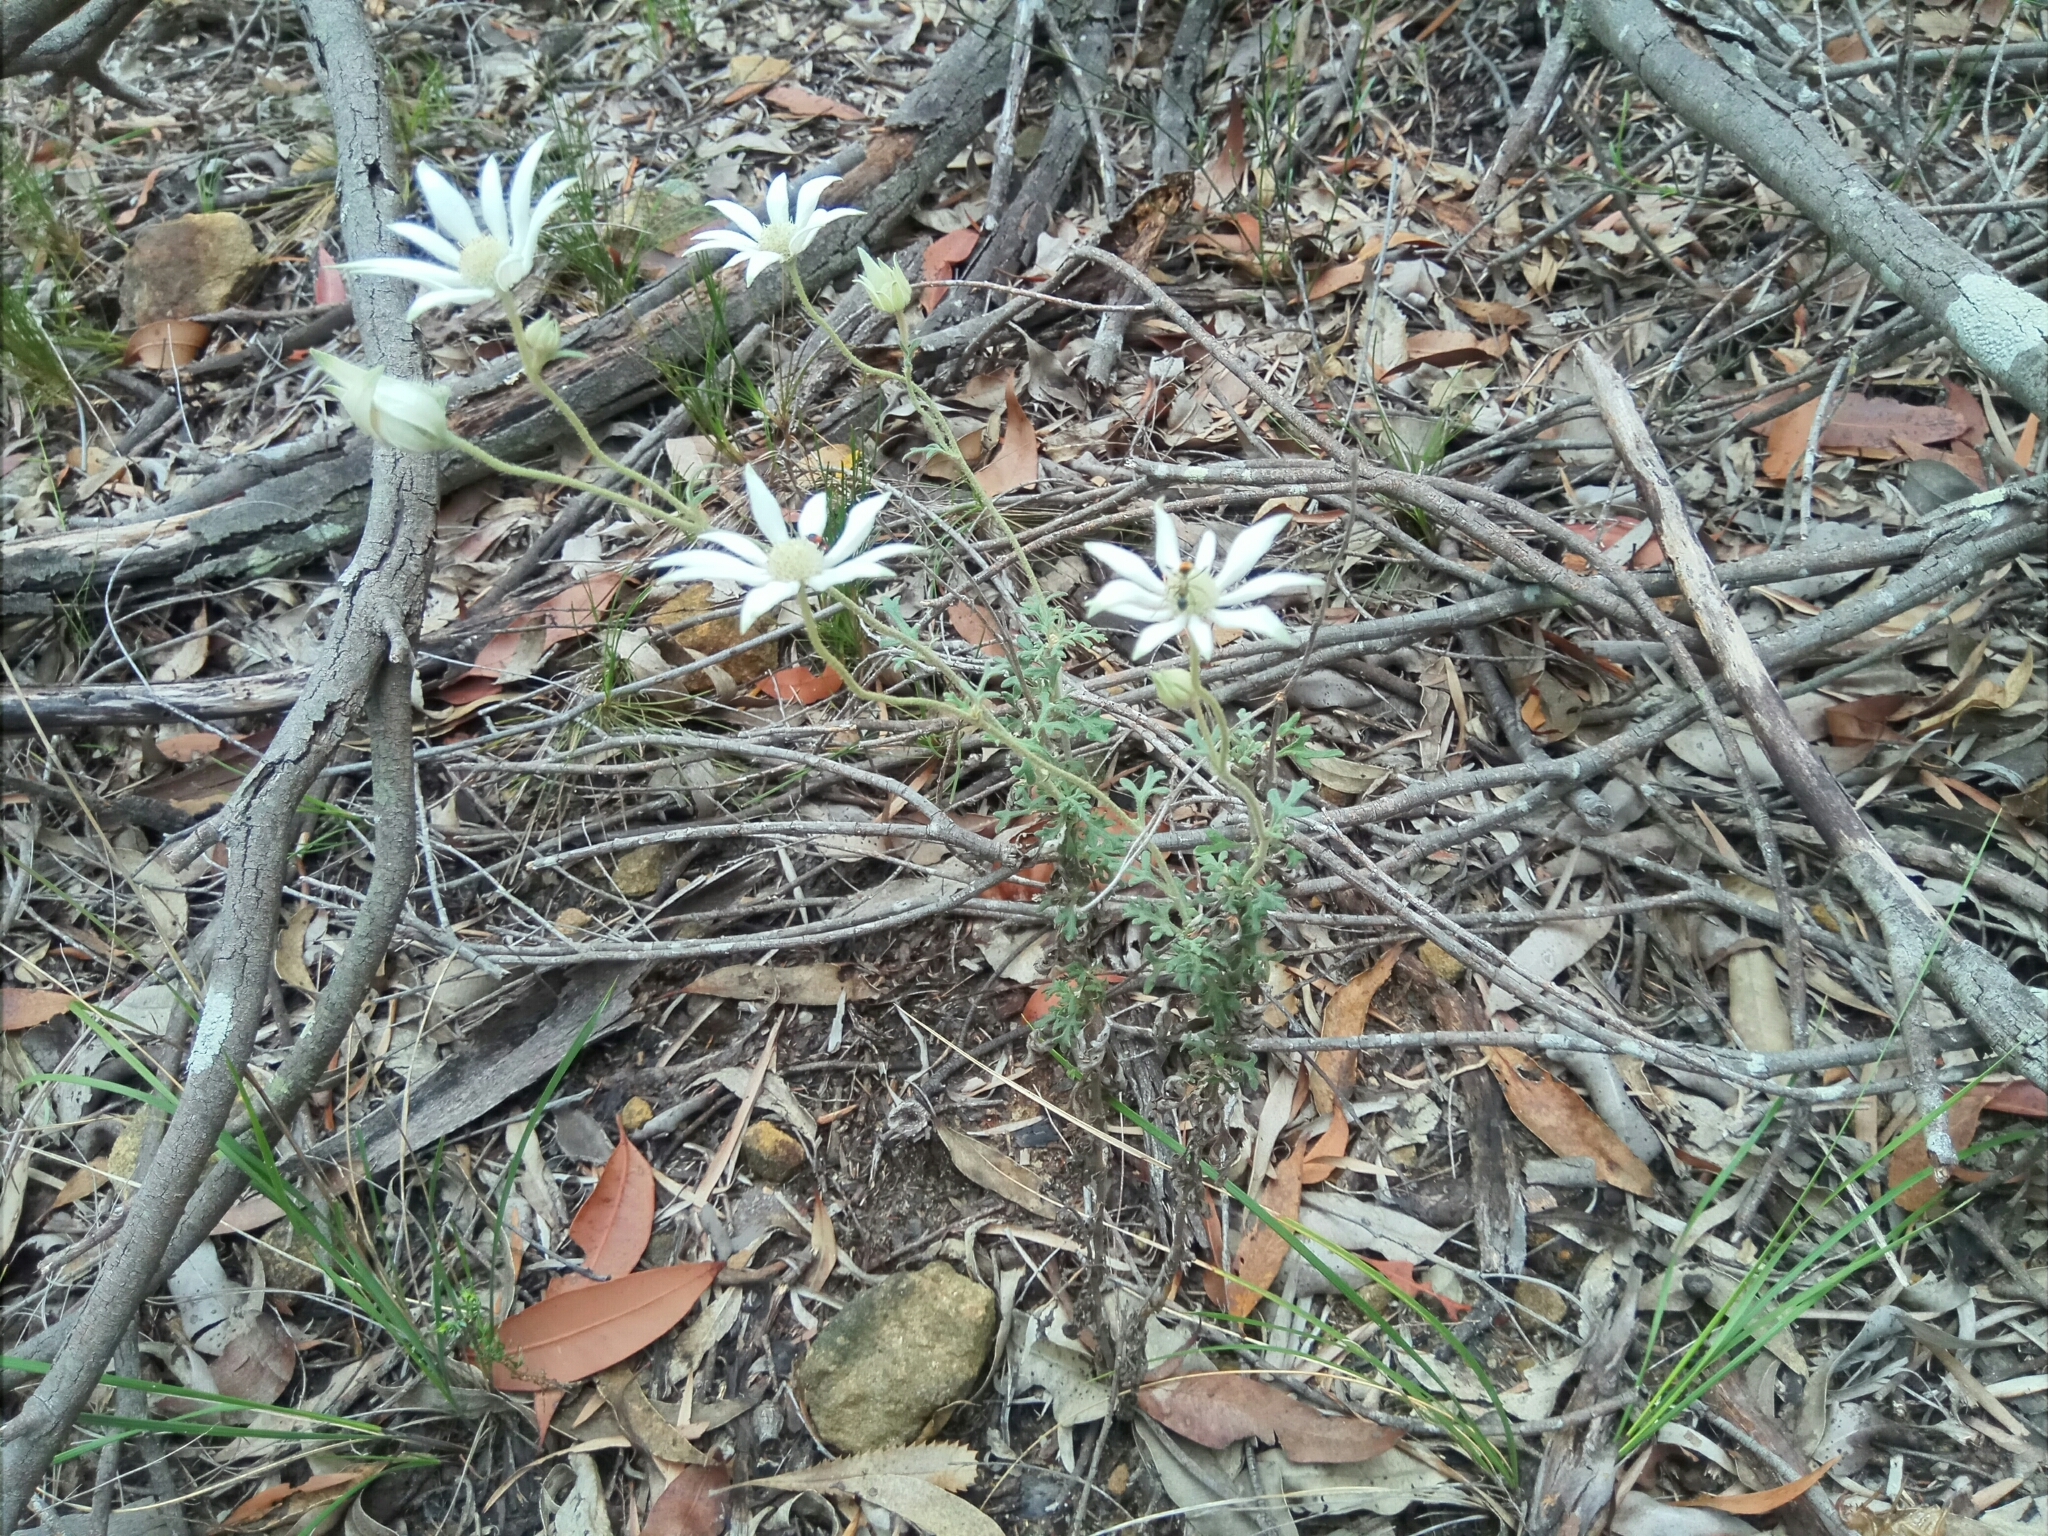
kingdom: Plantae
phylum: Tracheophyta
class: Magnoliopsida
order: Apiales
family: Apiaceae
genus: Actinotus
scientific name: Actinotus helianthi
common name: Flannel-flower
